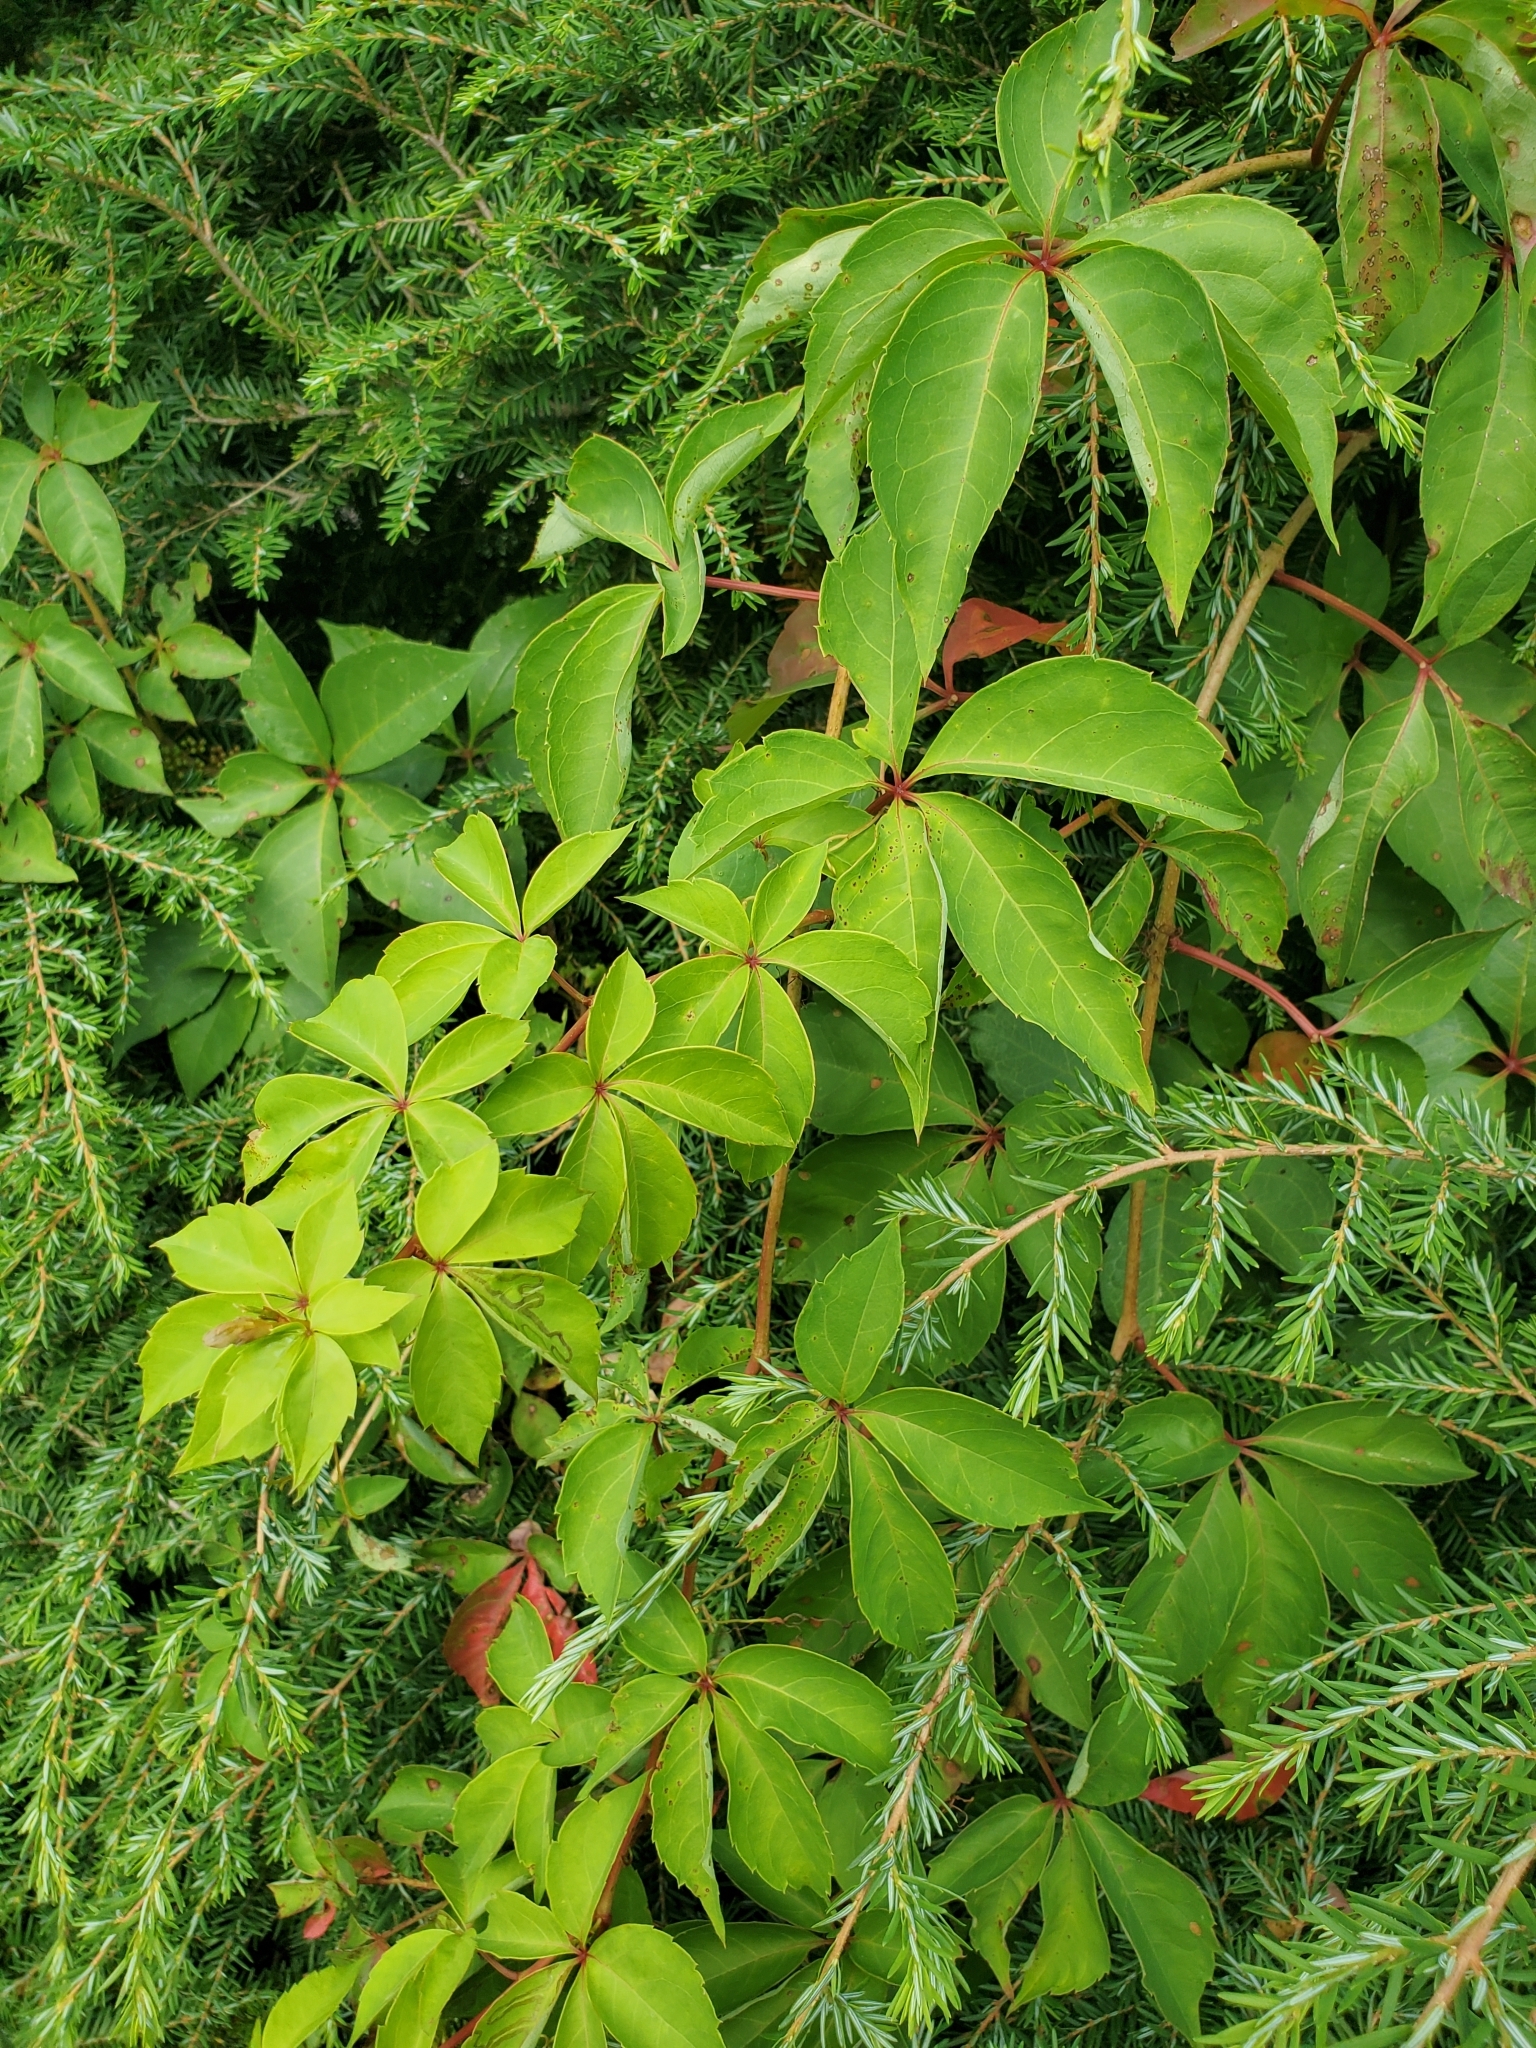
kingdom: Plantae
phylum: Tracheophyta
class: Magnoliopsida
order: Vitales
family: Vitaceae
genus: Parthenocissus
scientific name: Parthenocissus quinquefolia
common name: Virginia-creeper
